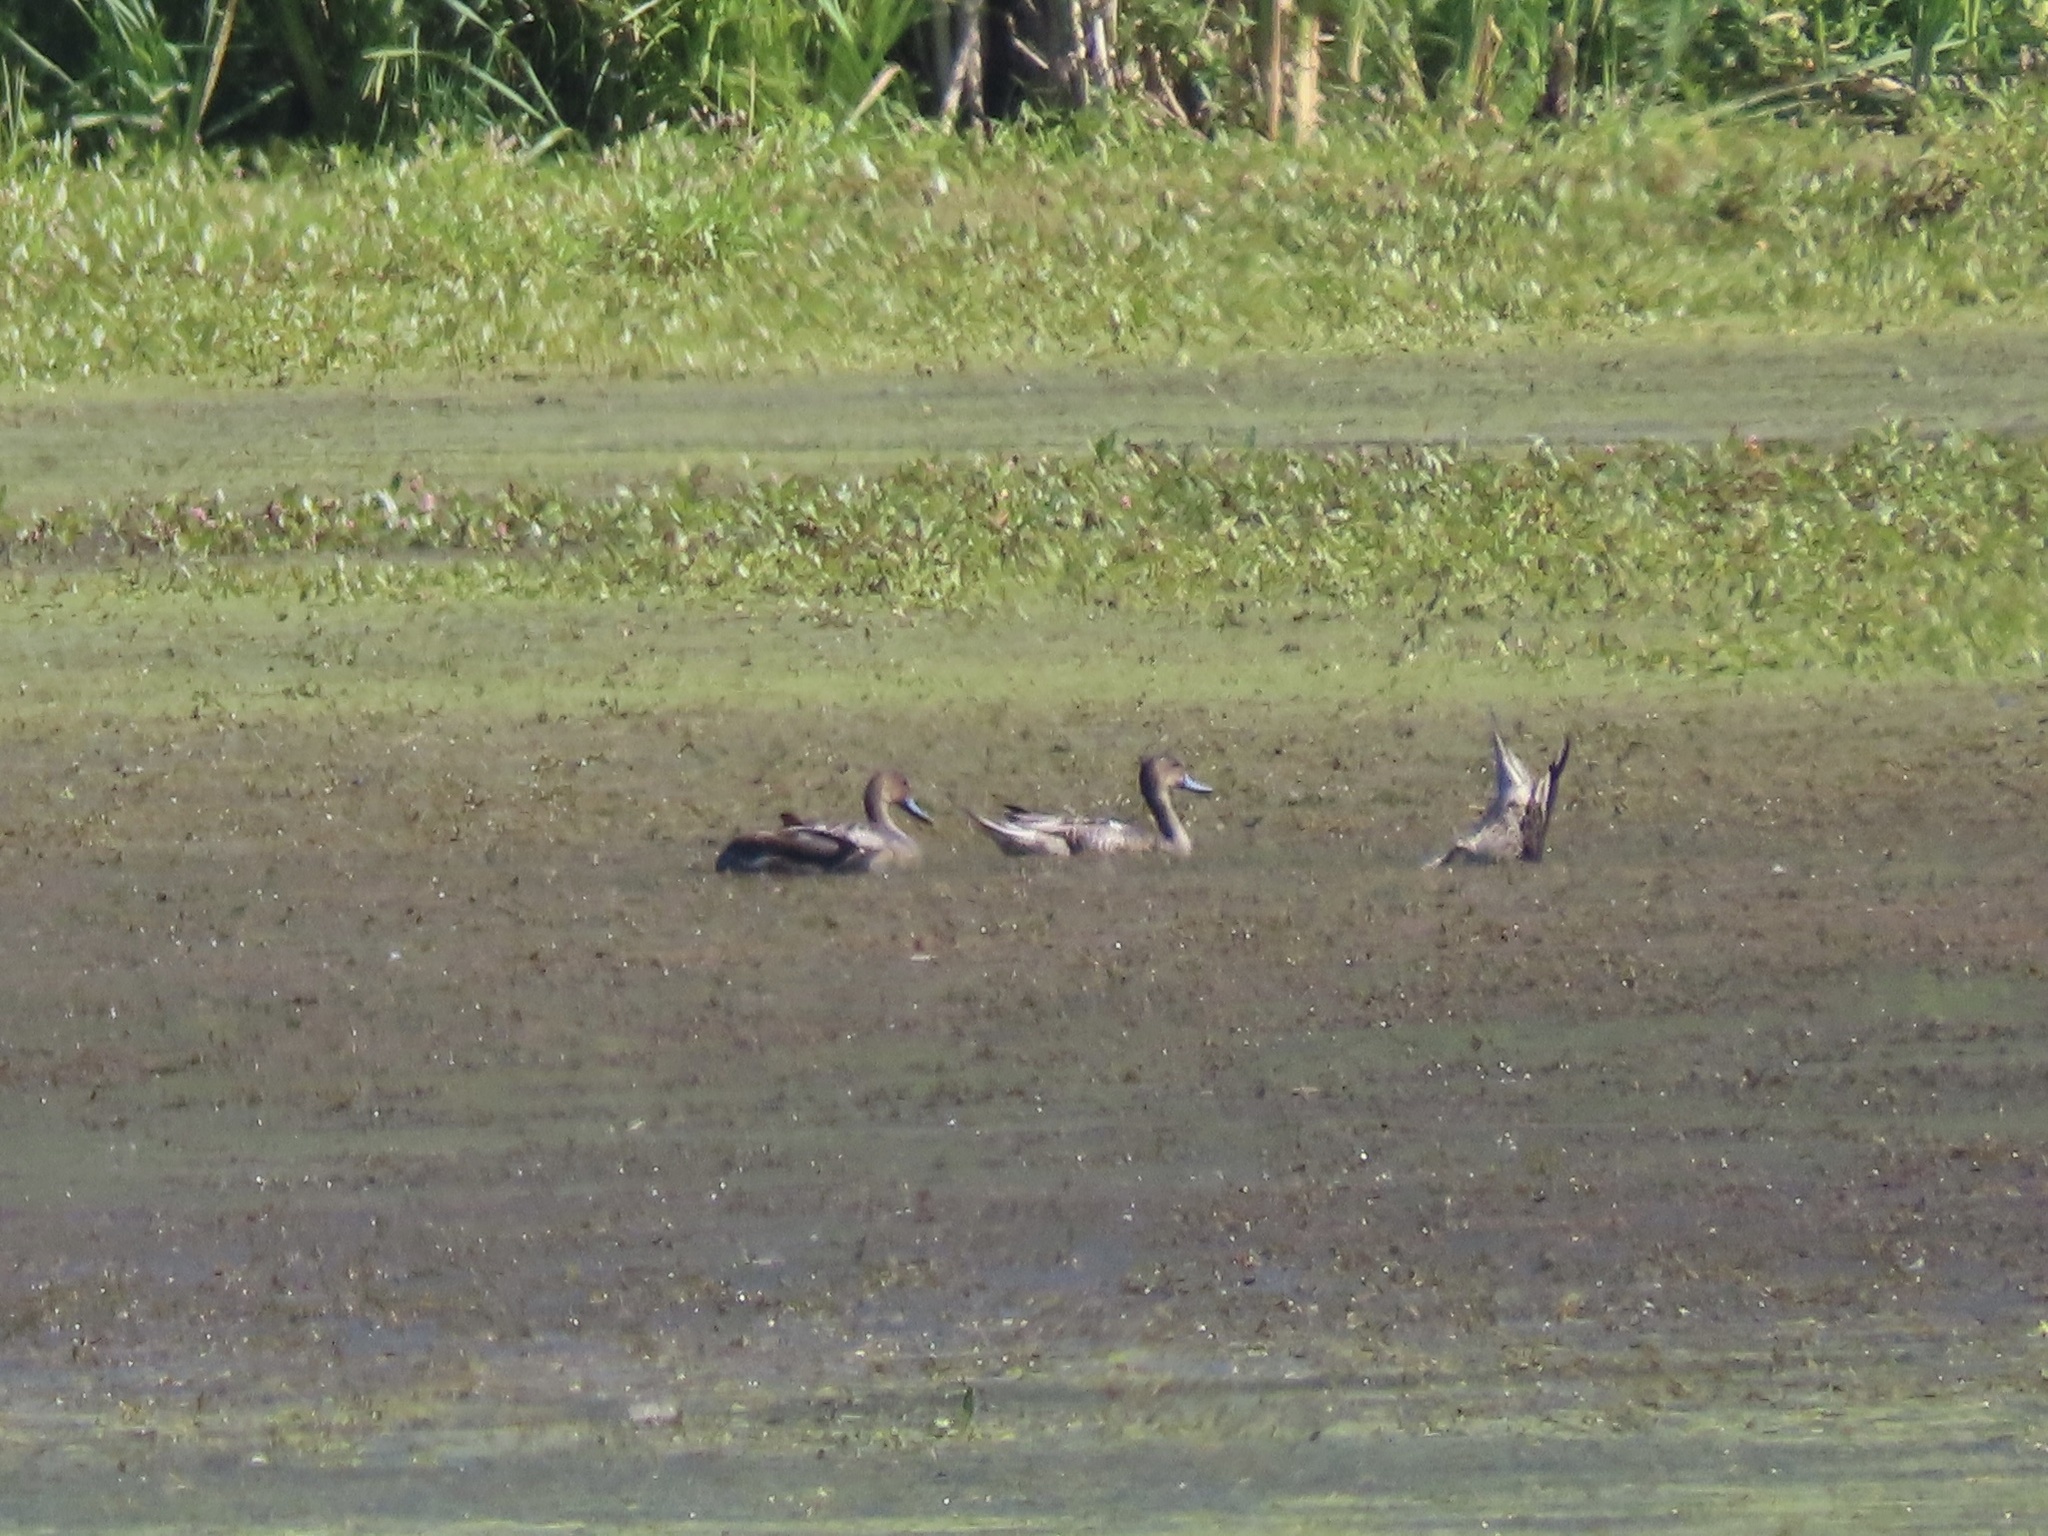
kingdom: Animalia
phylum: Chordata
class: Aves
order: Anseriformes
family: Anatidae
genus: Anas
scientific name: Anas acuta
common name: Northern pintail
